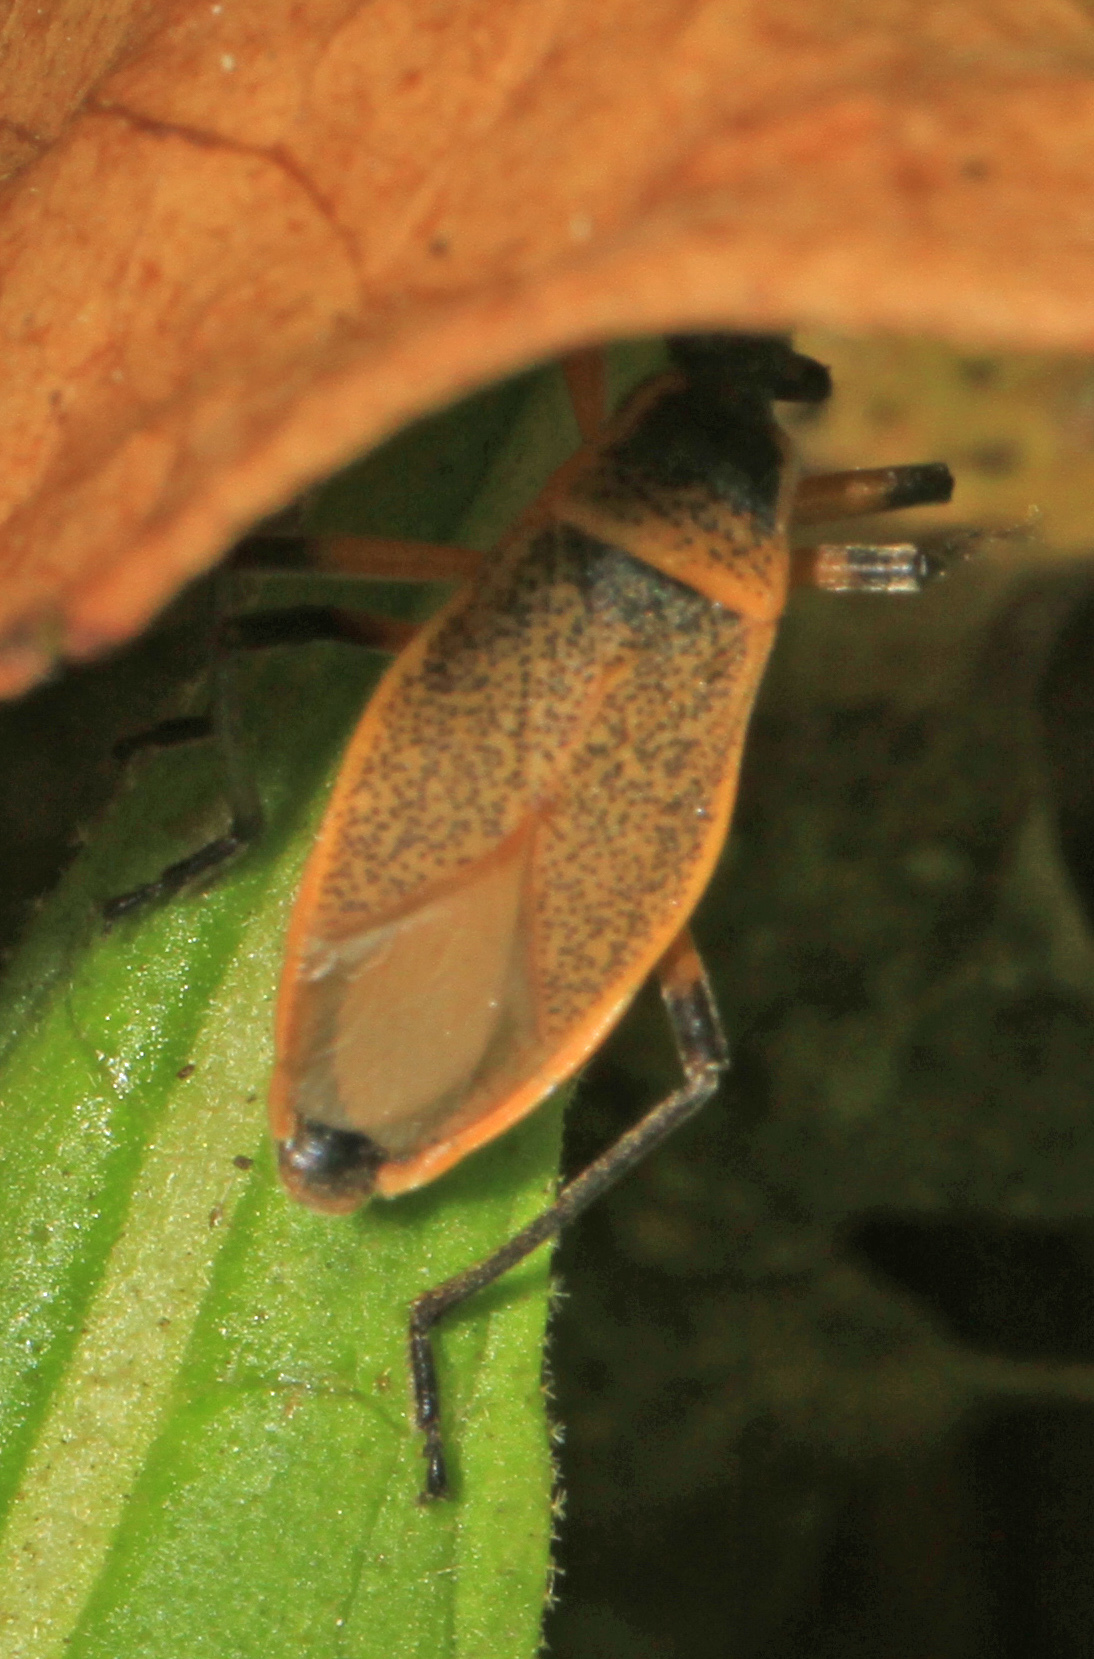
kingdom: Animalia
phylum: Arthropoda
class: Insecta
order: Hemiptera
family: Largidae
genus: Largus
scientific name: Largus davisi
